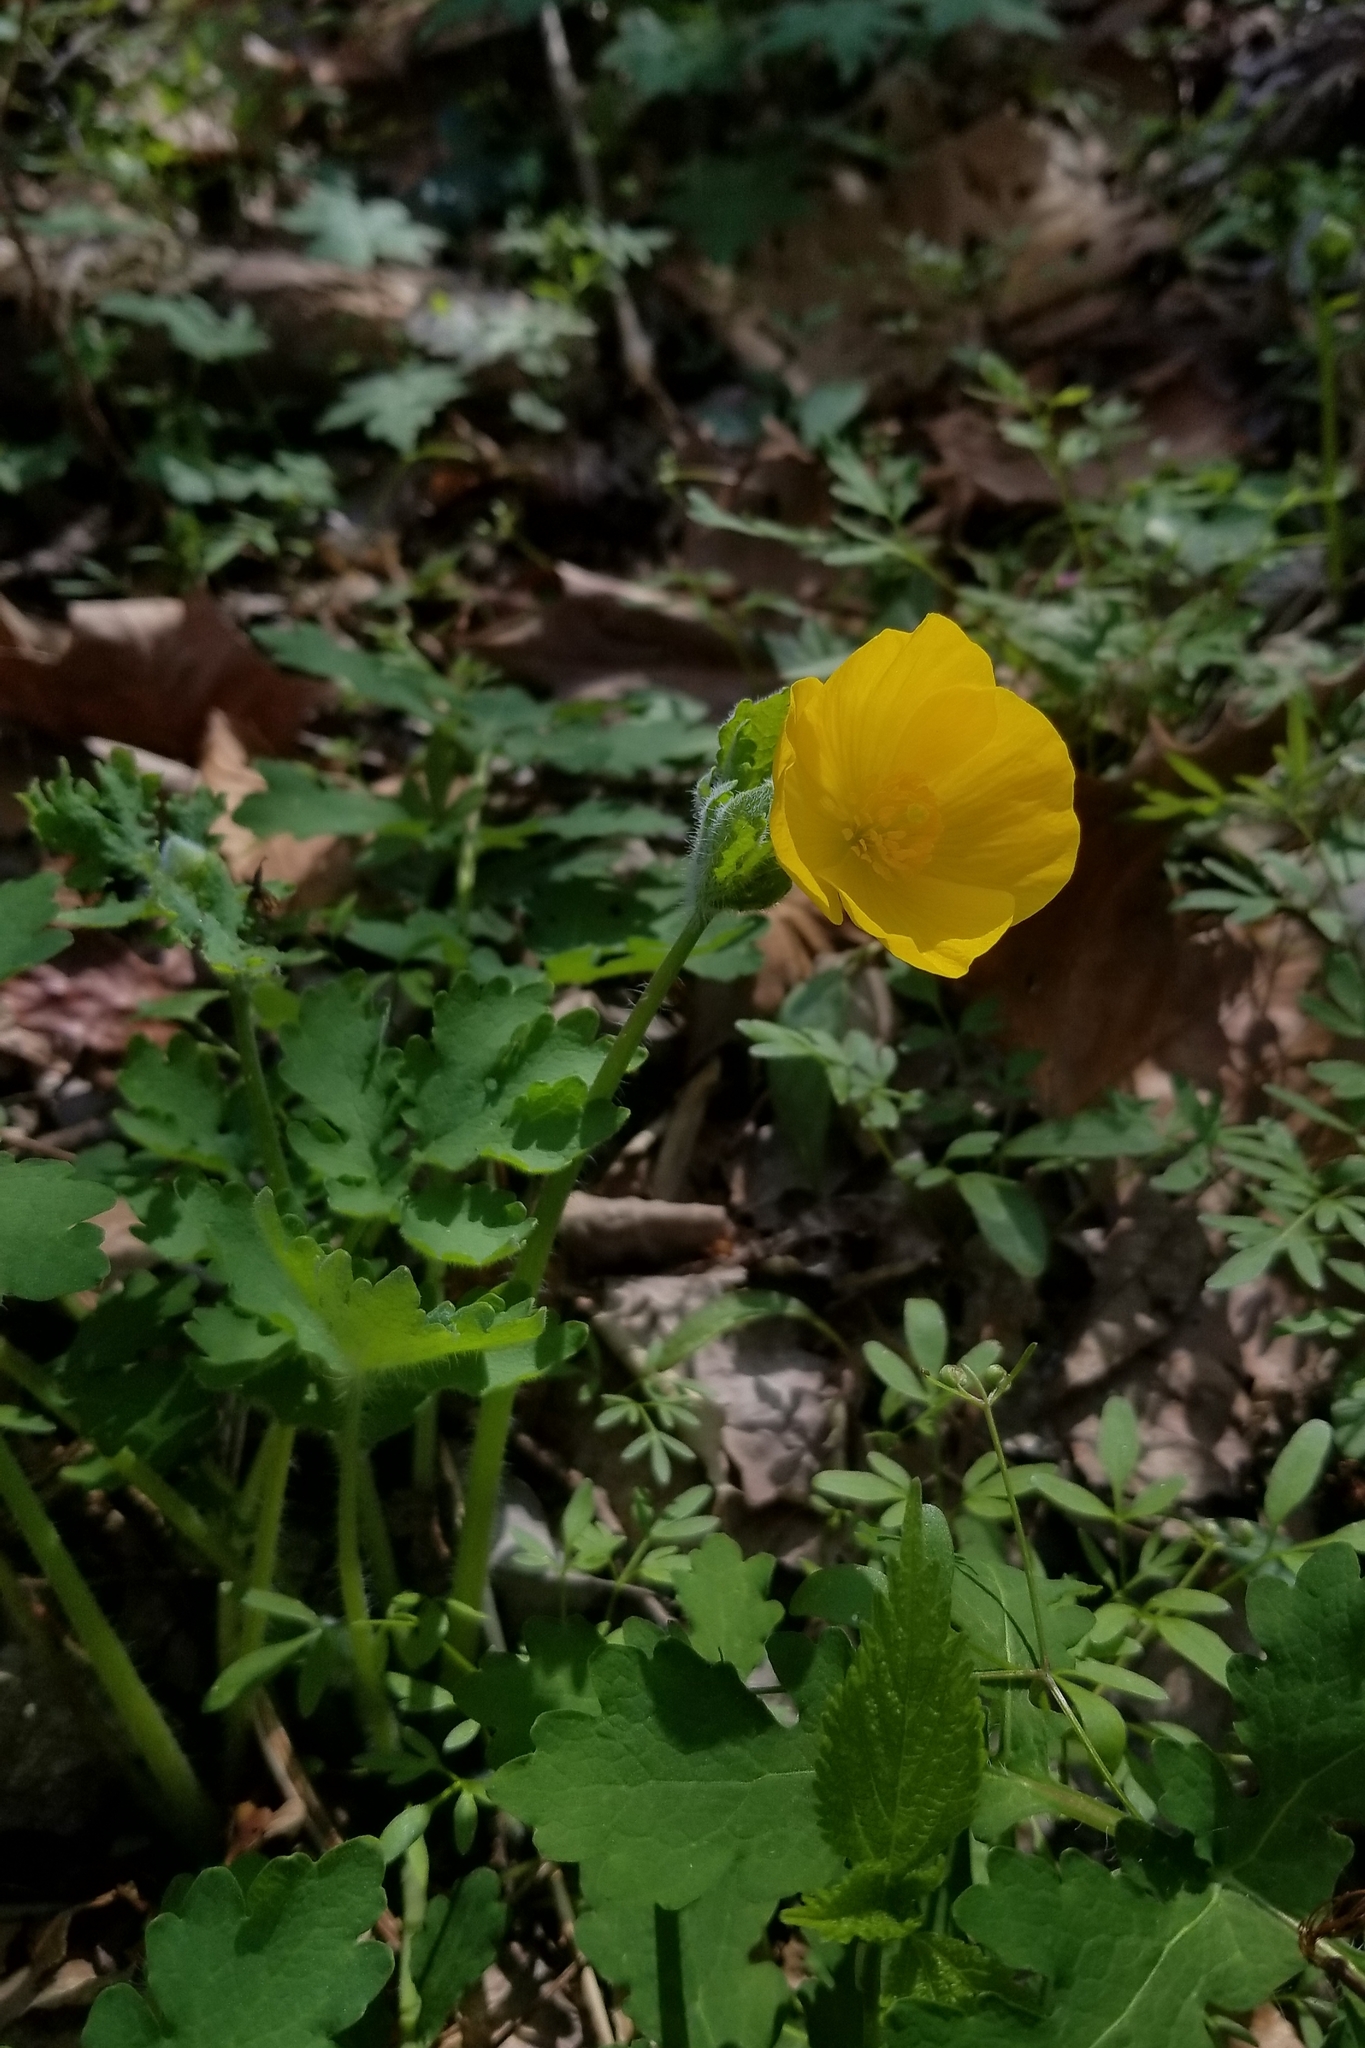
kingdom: Plantae
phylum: Tracheophyta
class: Magnoliopsida
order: Ranunculales
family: Papaveraceae
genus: Stylophorum
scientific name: Stylophorum diphyllum
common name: Celandine poppy
